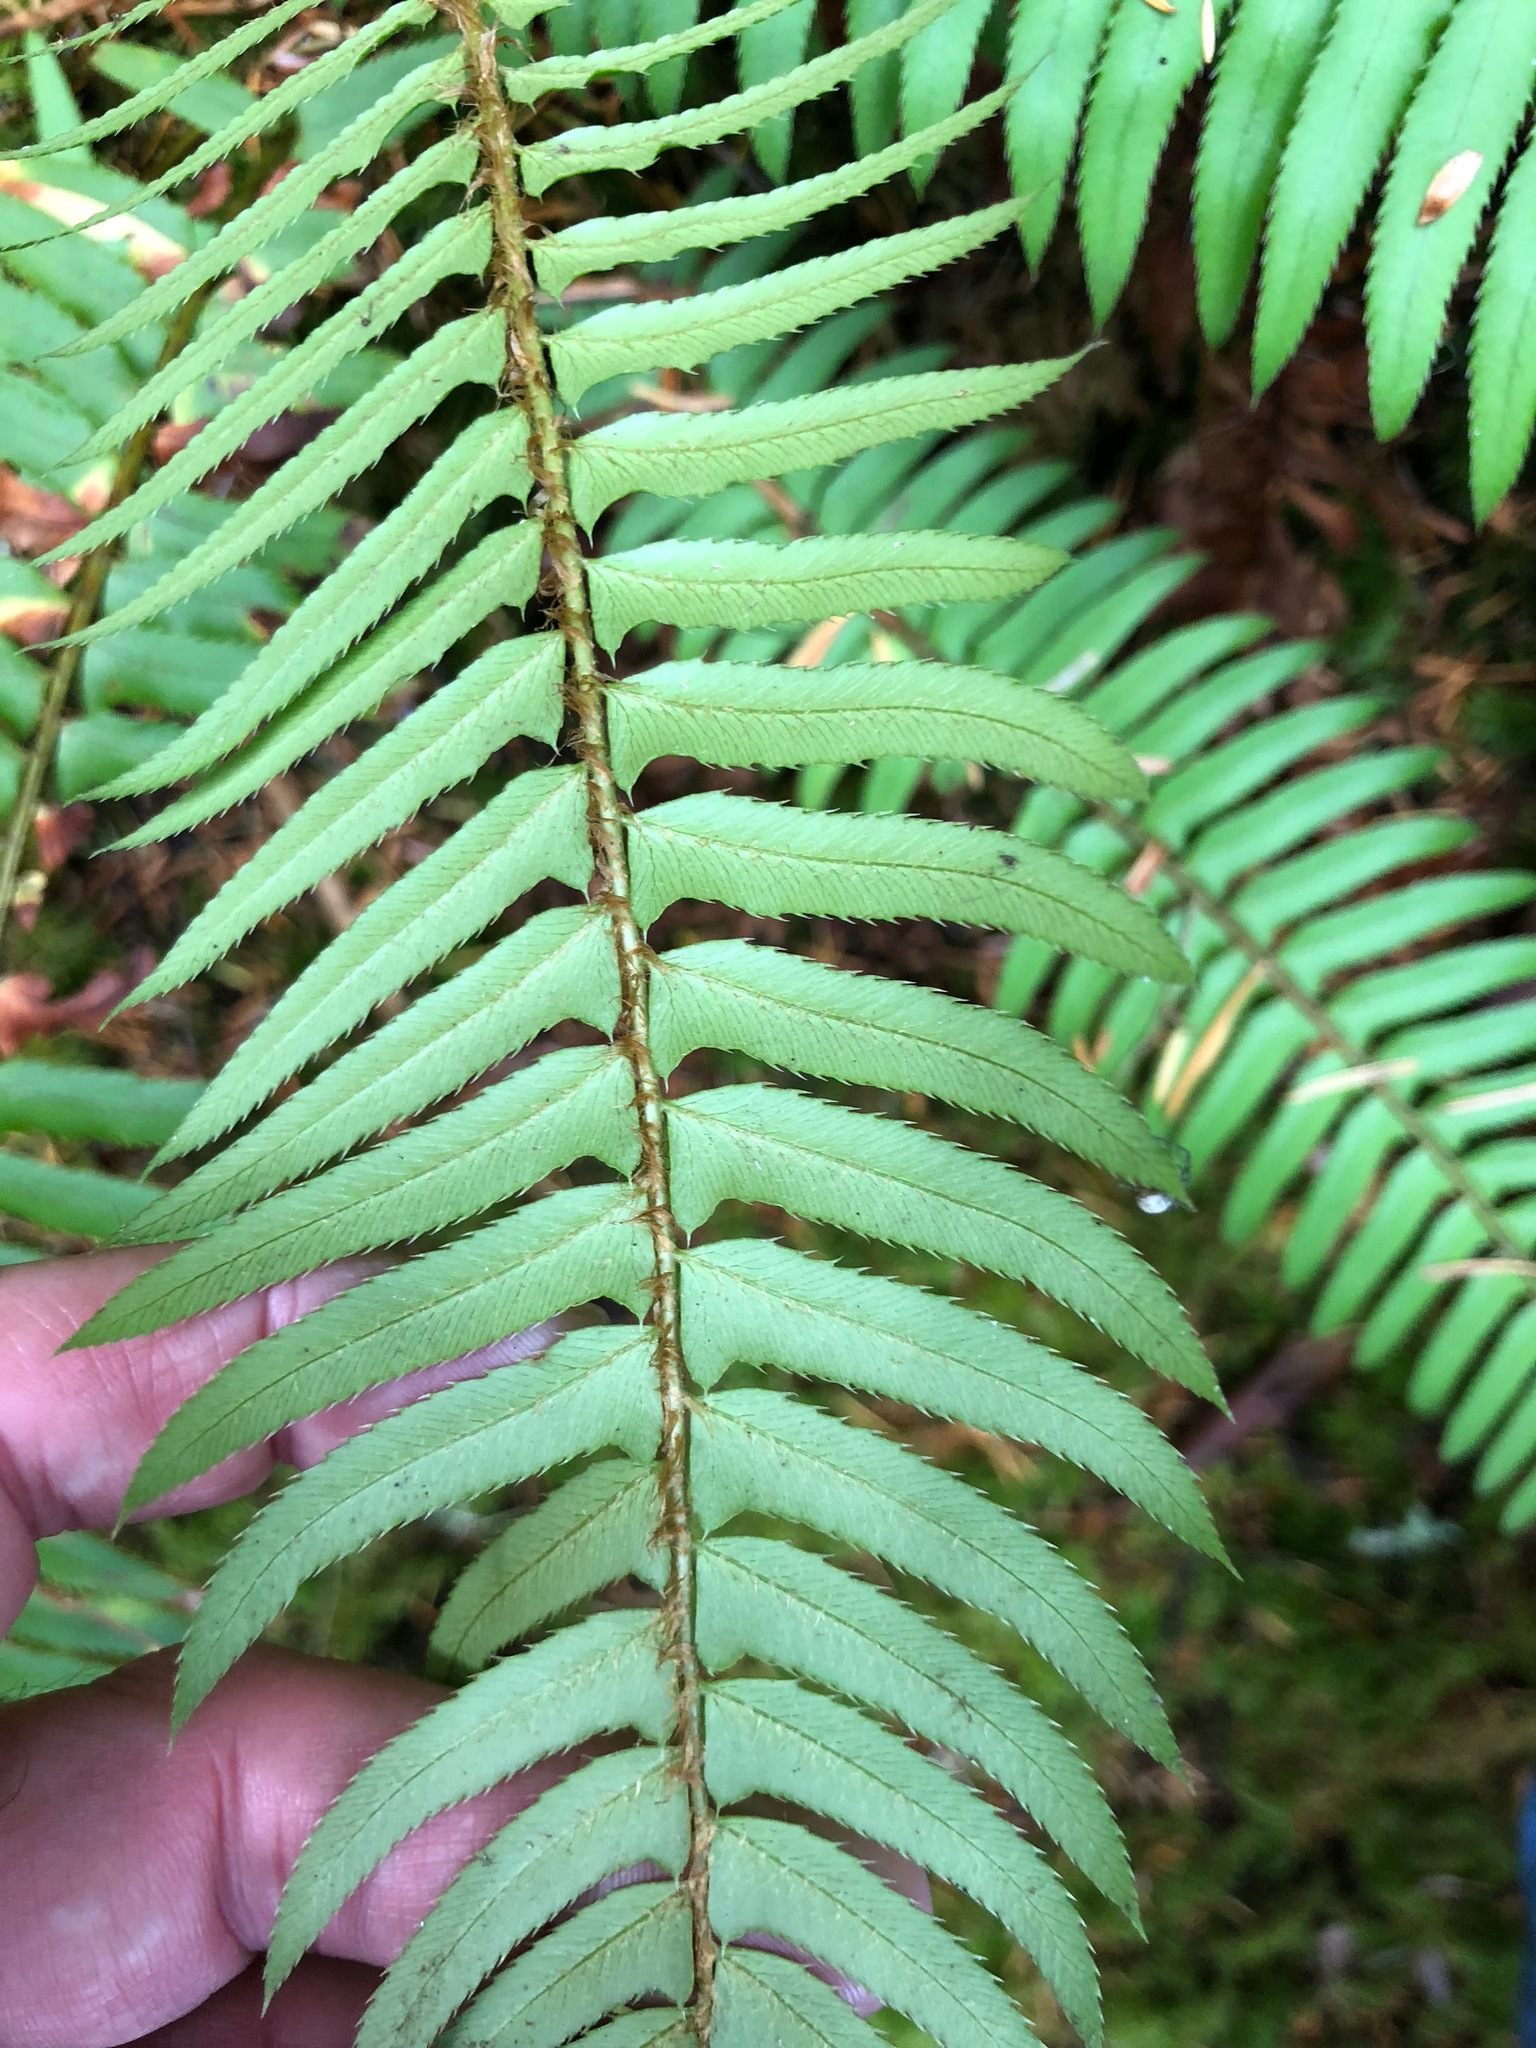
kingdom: Plantae
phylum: Tracheophyta
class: Polypodiopsida
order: Polypodiales
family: Dryopteridaceae
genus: Polystichum
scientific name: Polystichum munitum
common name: Western sword-fern
